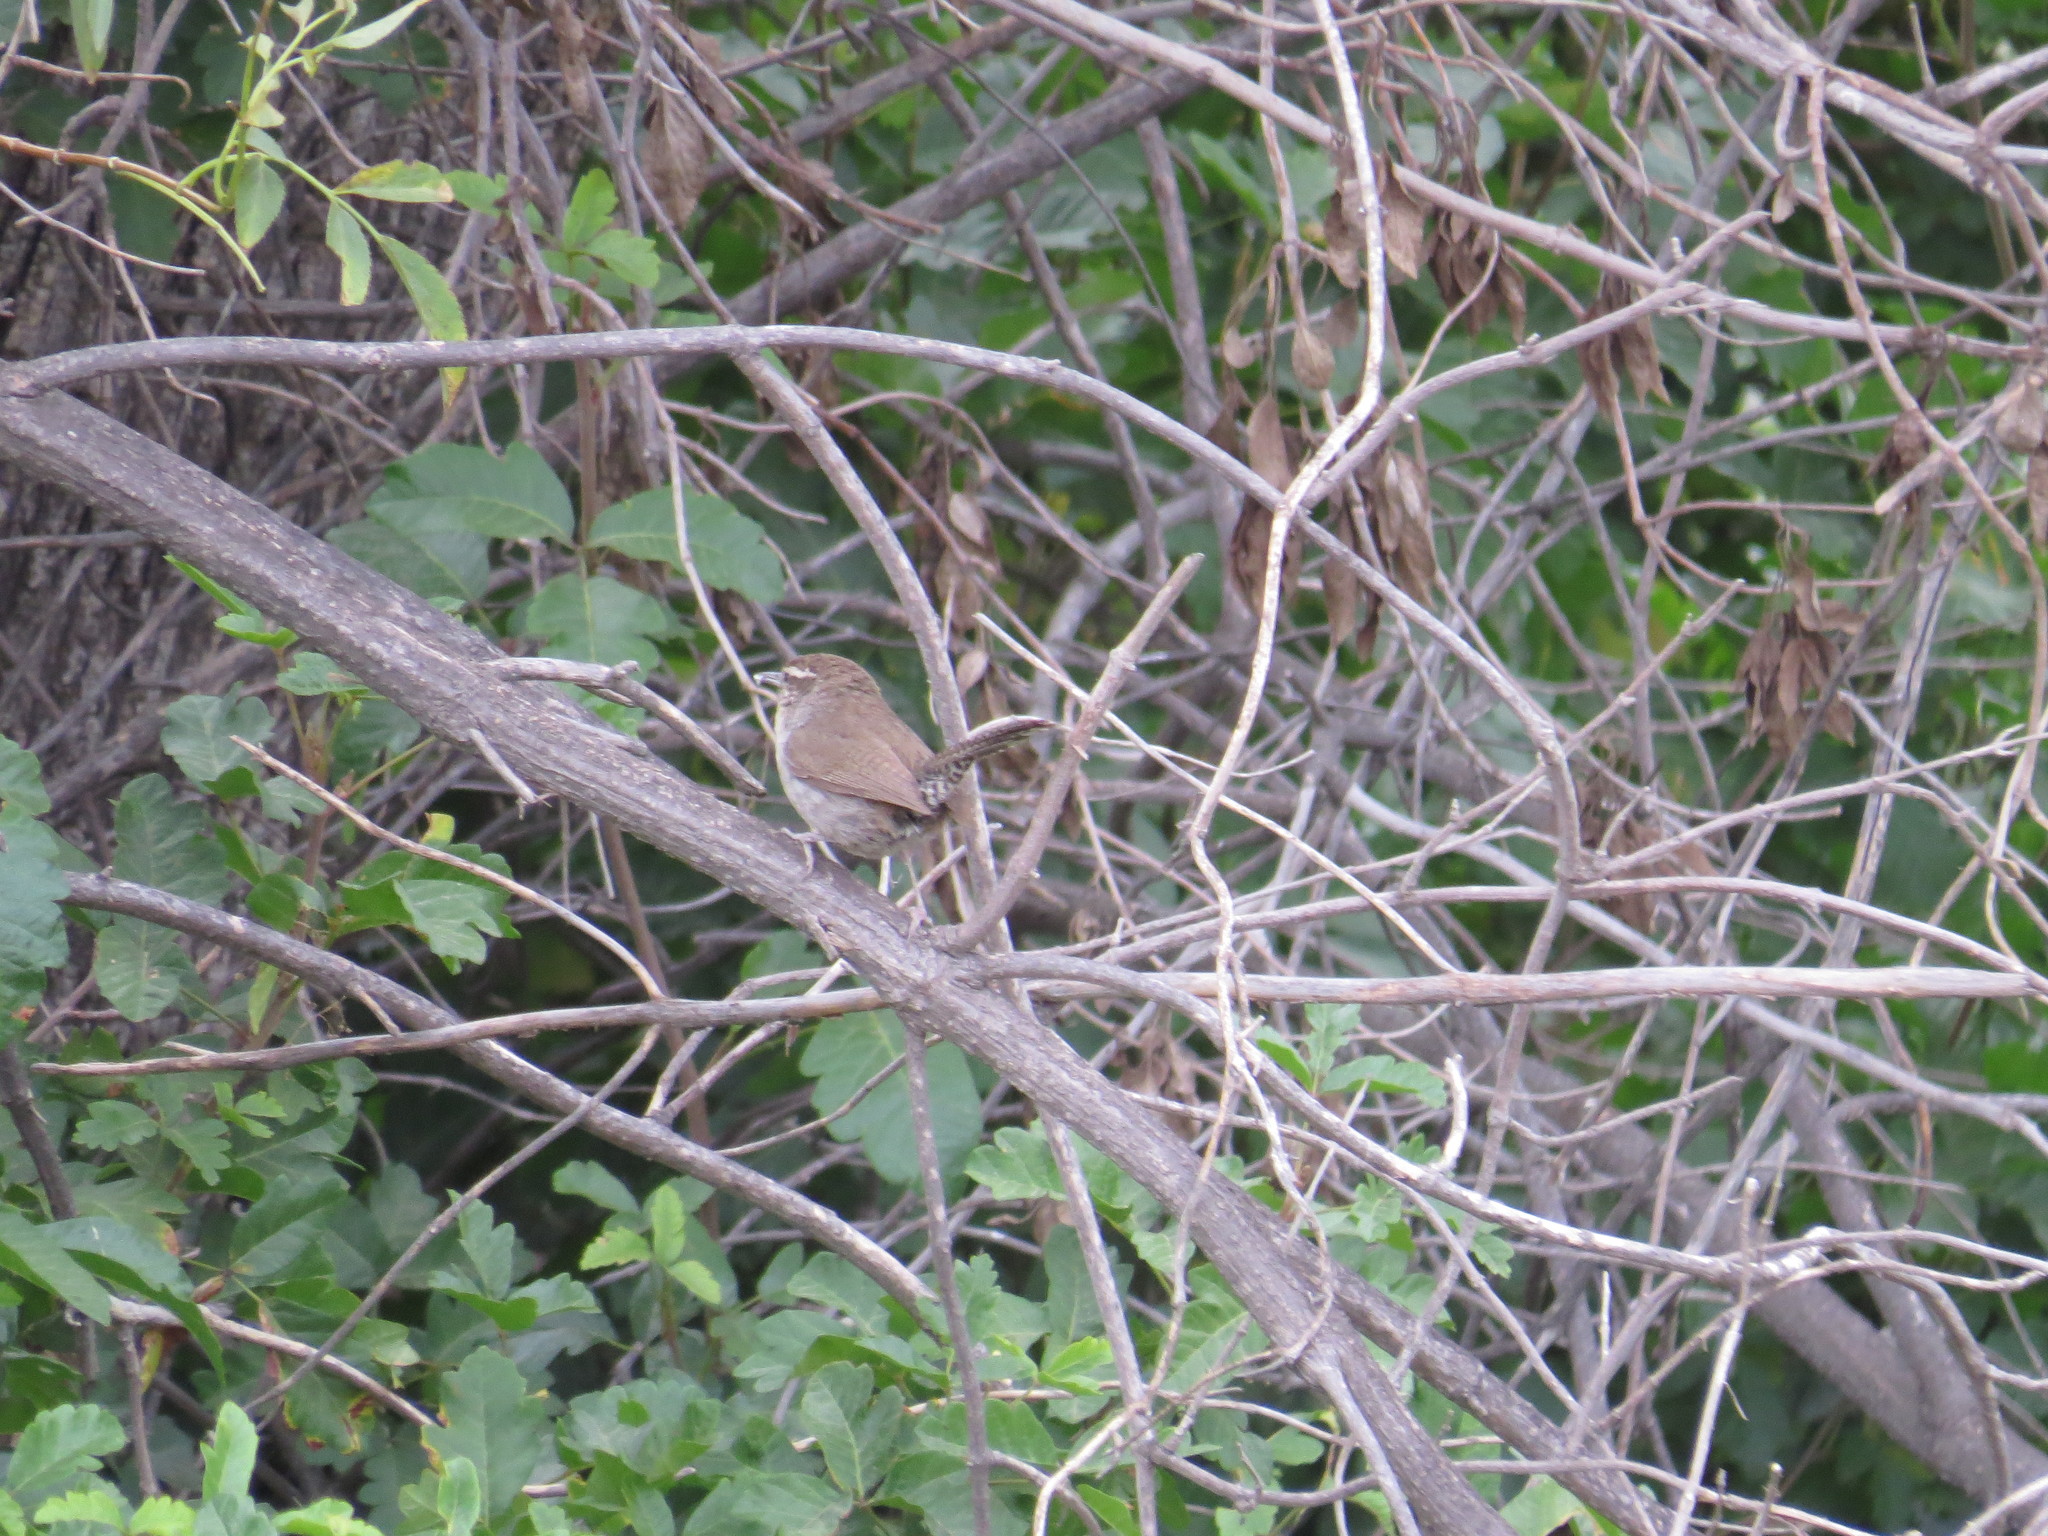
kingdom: Animalia
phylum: Chordata
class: Aves
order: Passeriformes
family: Troglodytidae
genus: Thryomanes
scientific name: Thryomanes bewickii
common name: Bewick's wren
